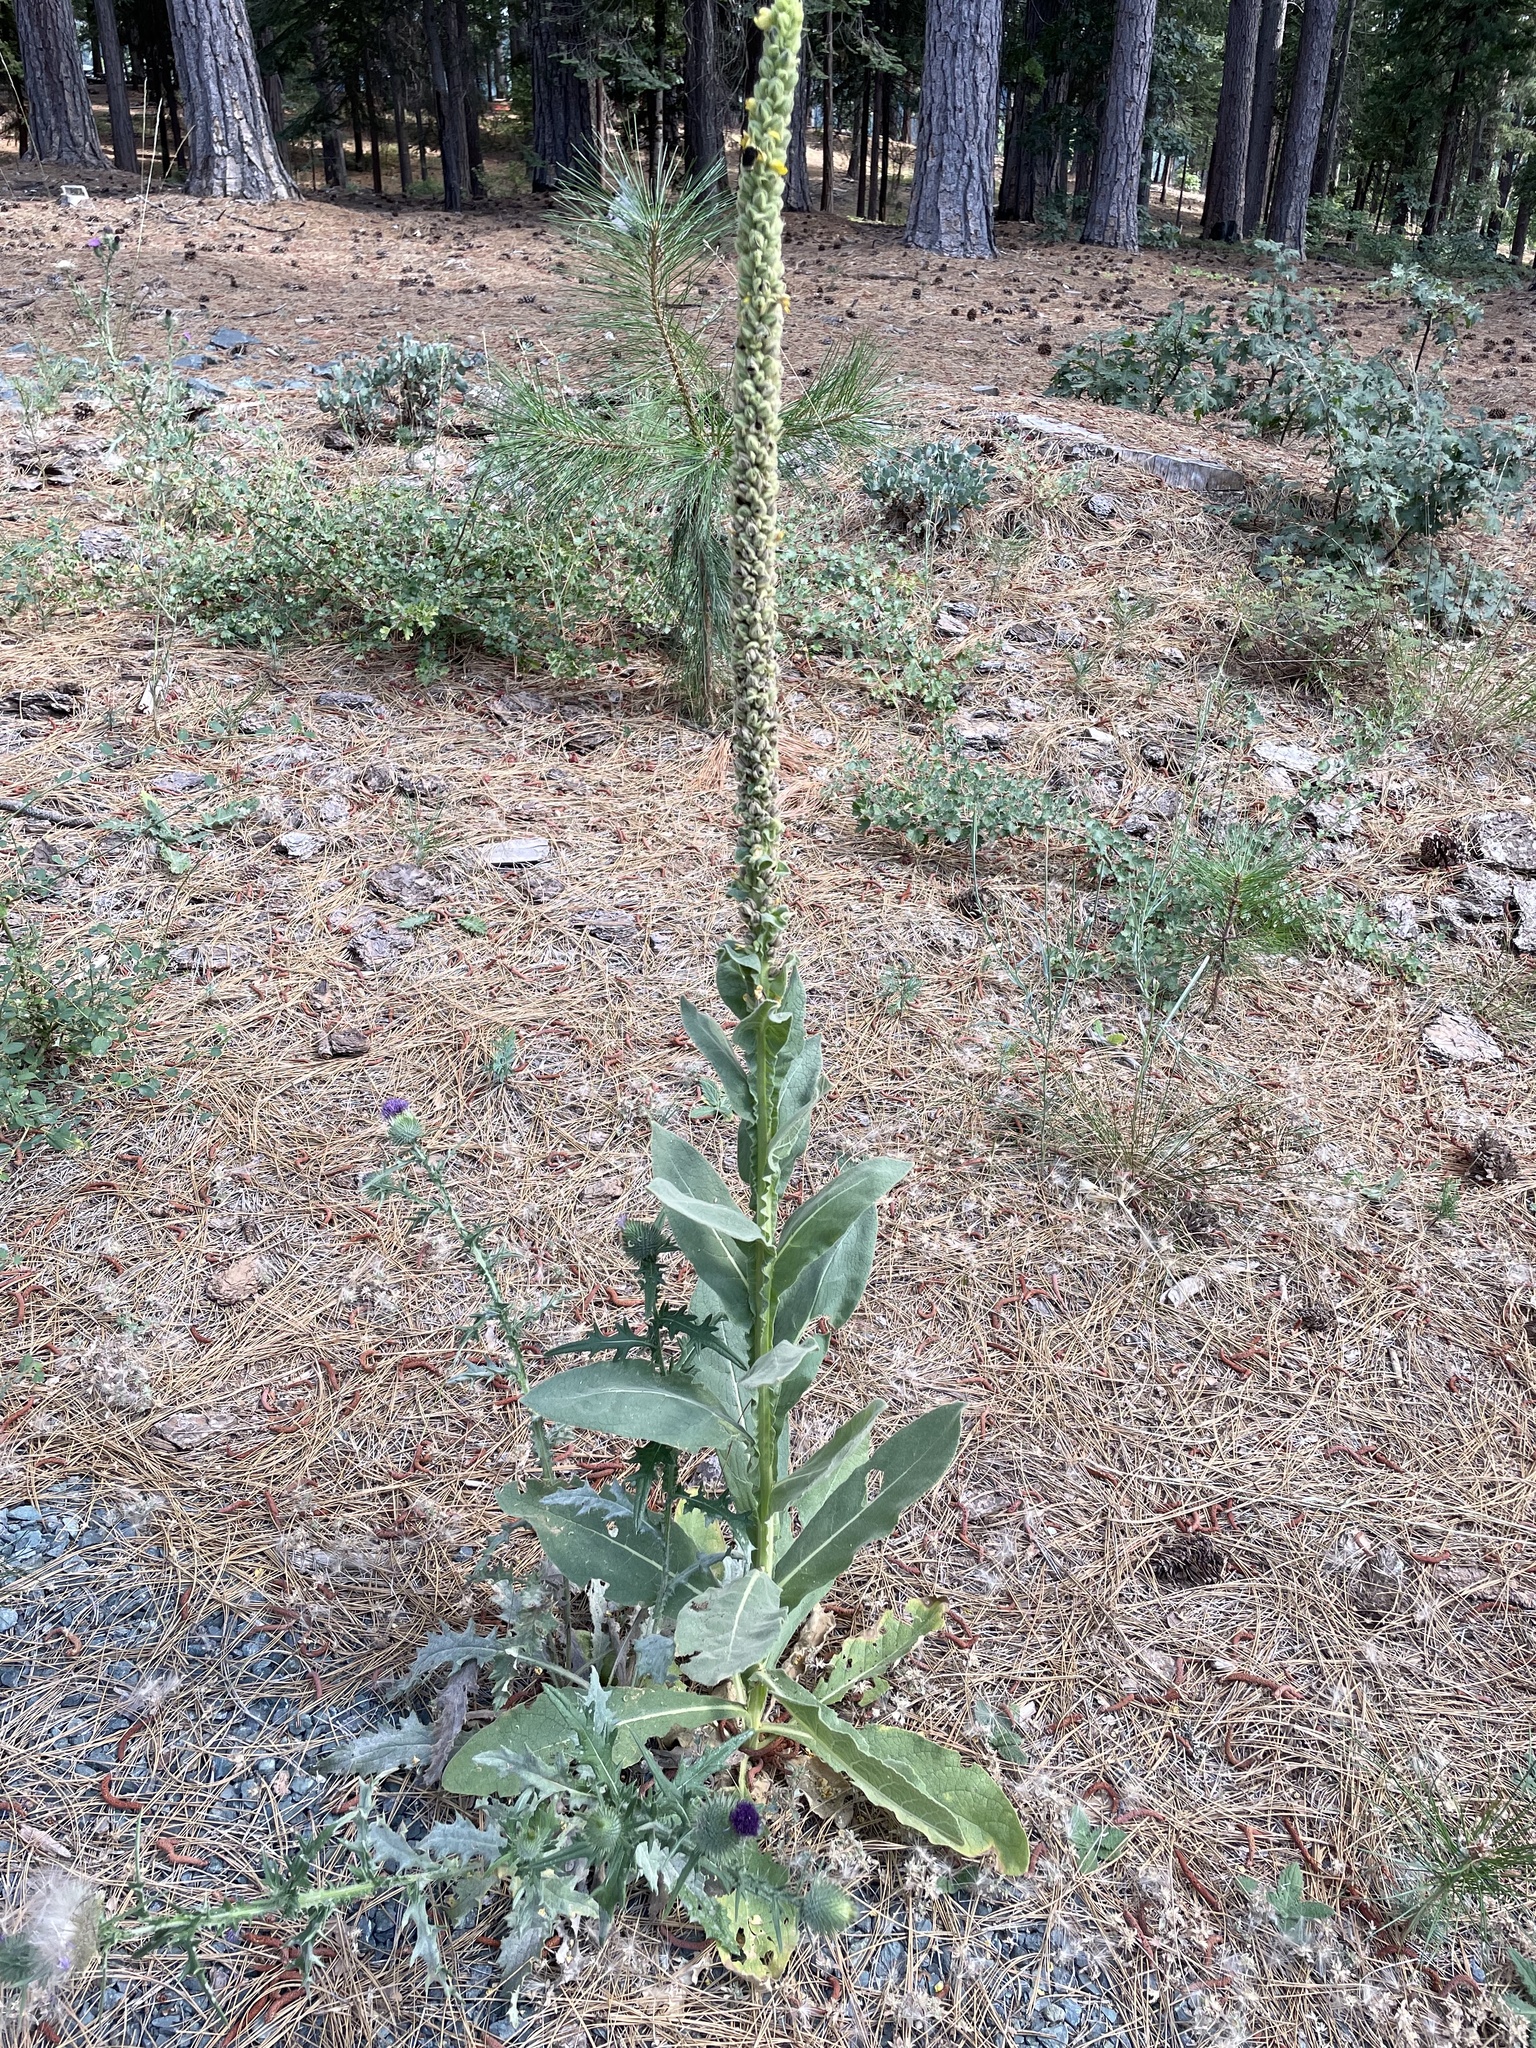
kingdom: Plantae
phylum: Tracheophyta
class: Magnoliopsida
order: Lamiales
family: Scrophulariaceae
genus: Verbascum
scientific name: Verbascum thapsus
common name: Common mullein
